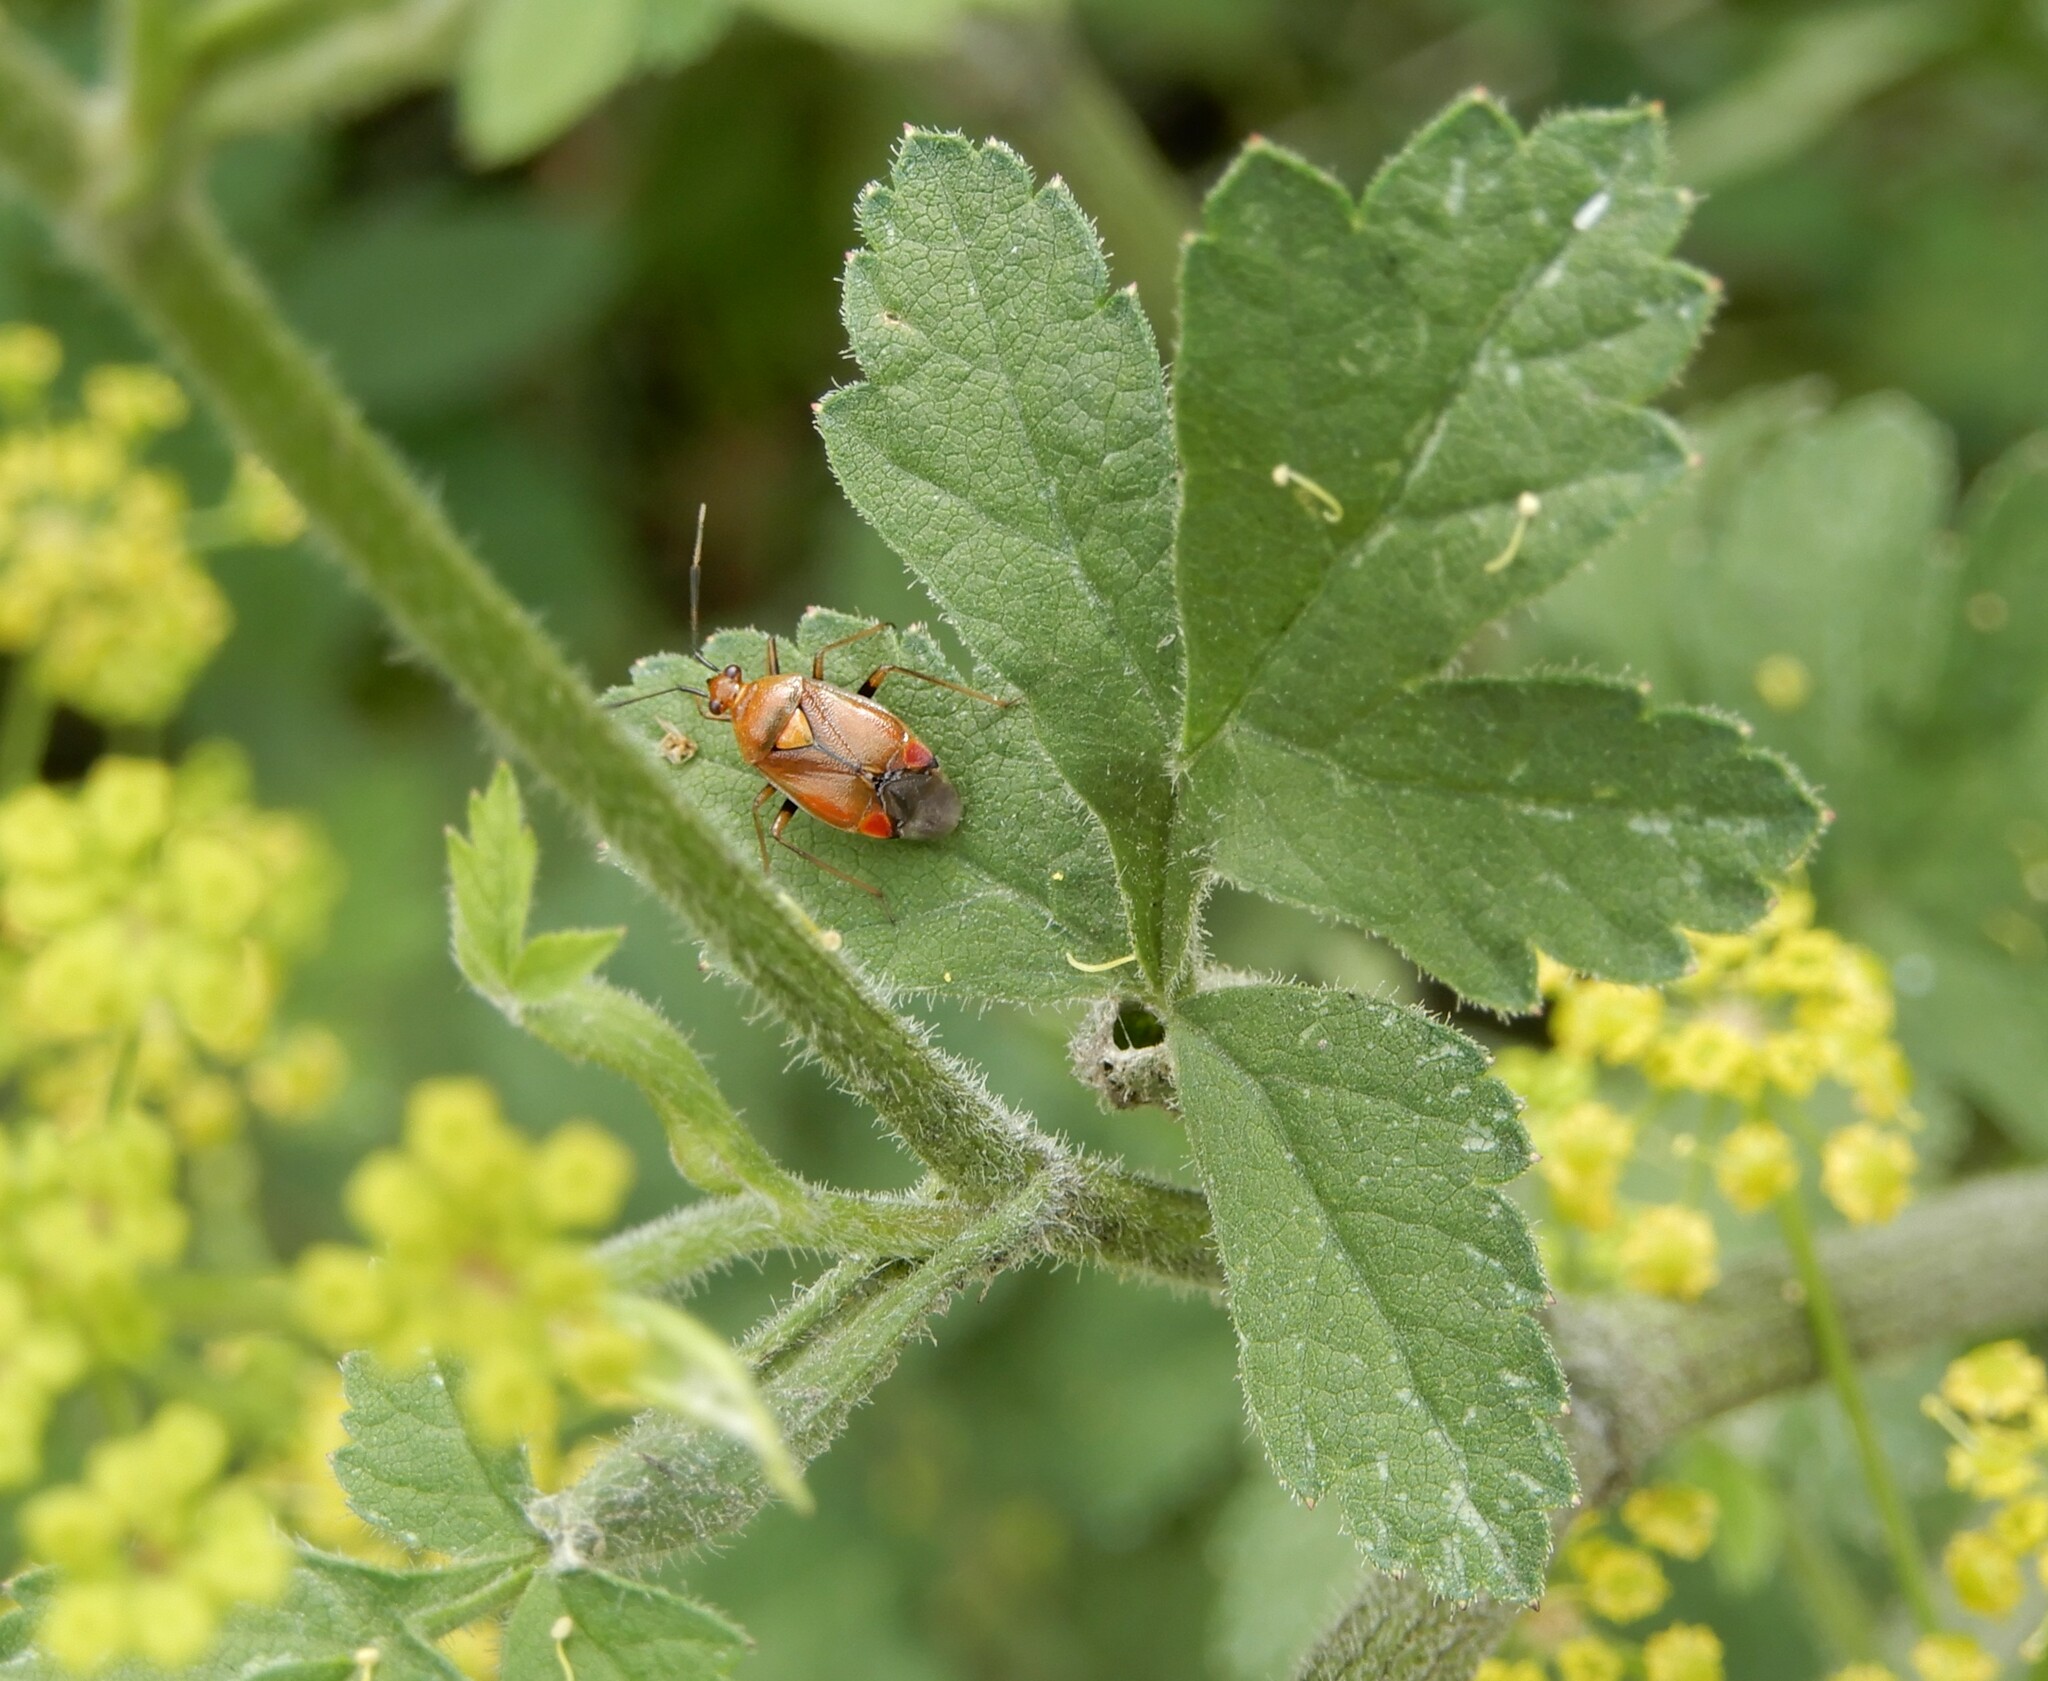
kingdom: Animalia
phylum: Arthropoda
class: Insecta
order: Hemiptera
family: Miridae
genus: Deraeocoris
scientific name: Deraeocoris ruber
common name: Plant bug
